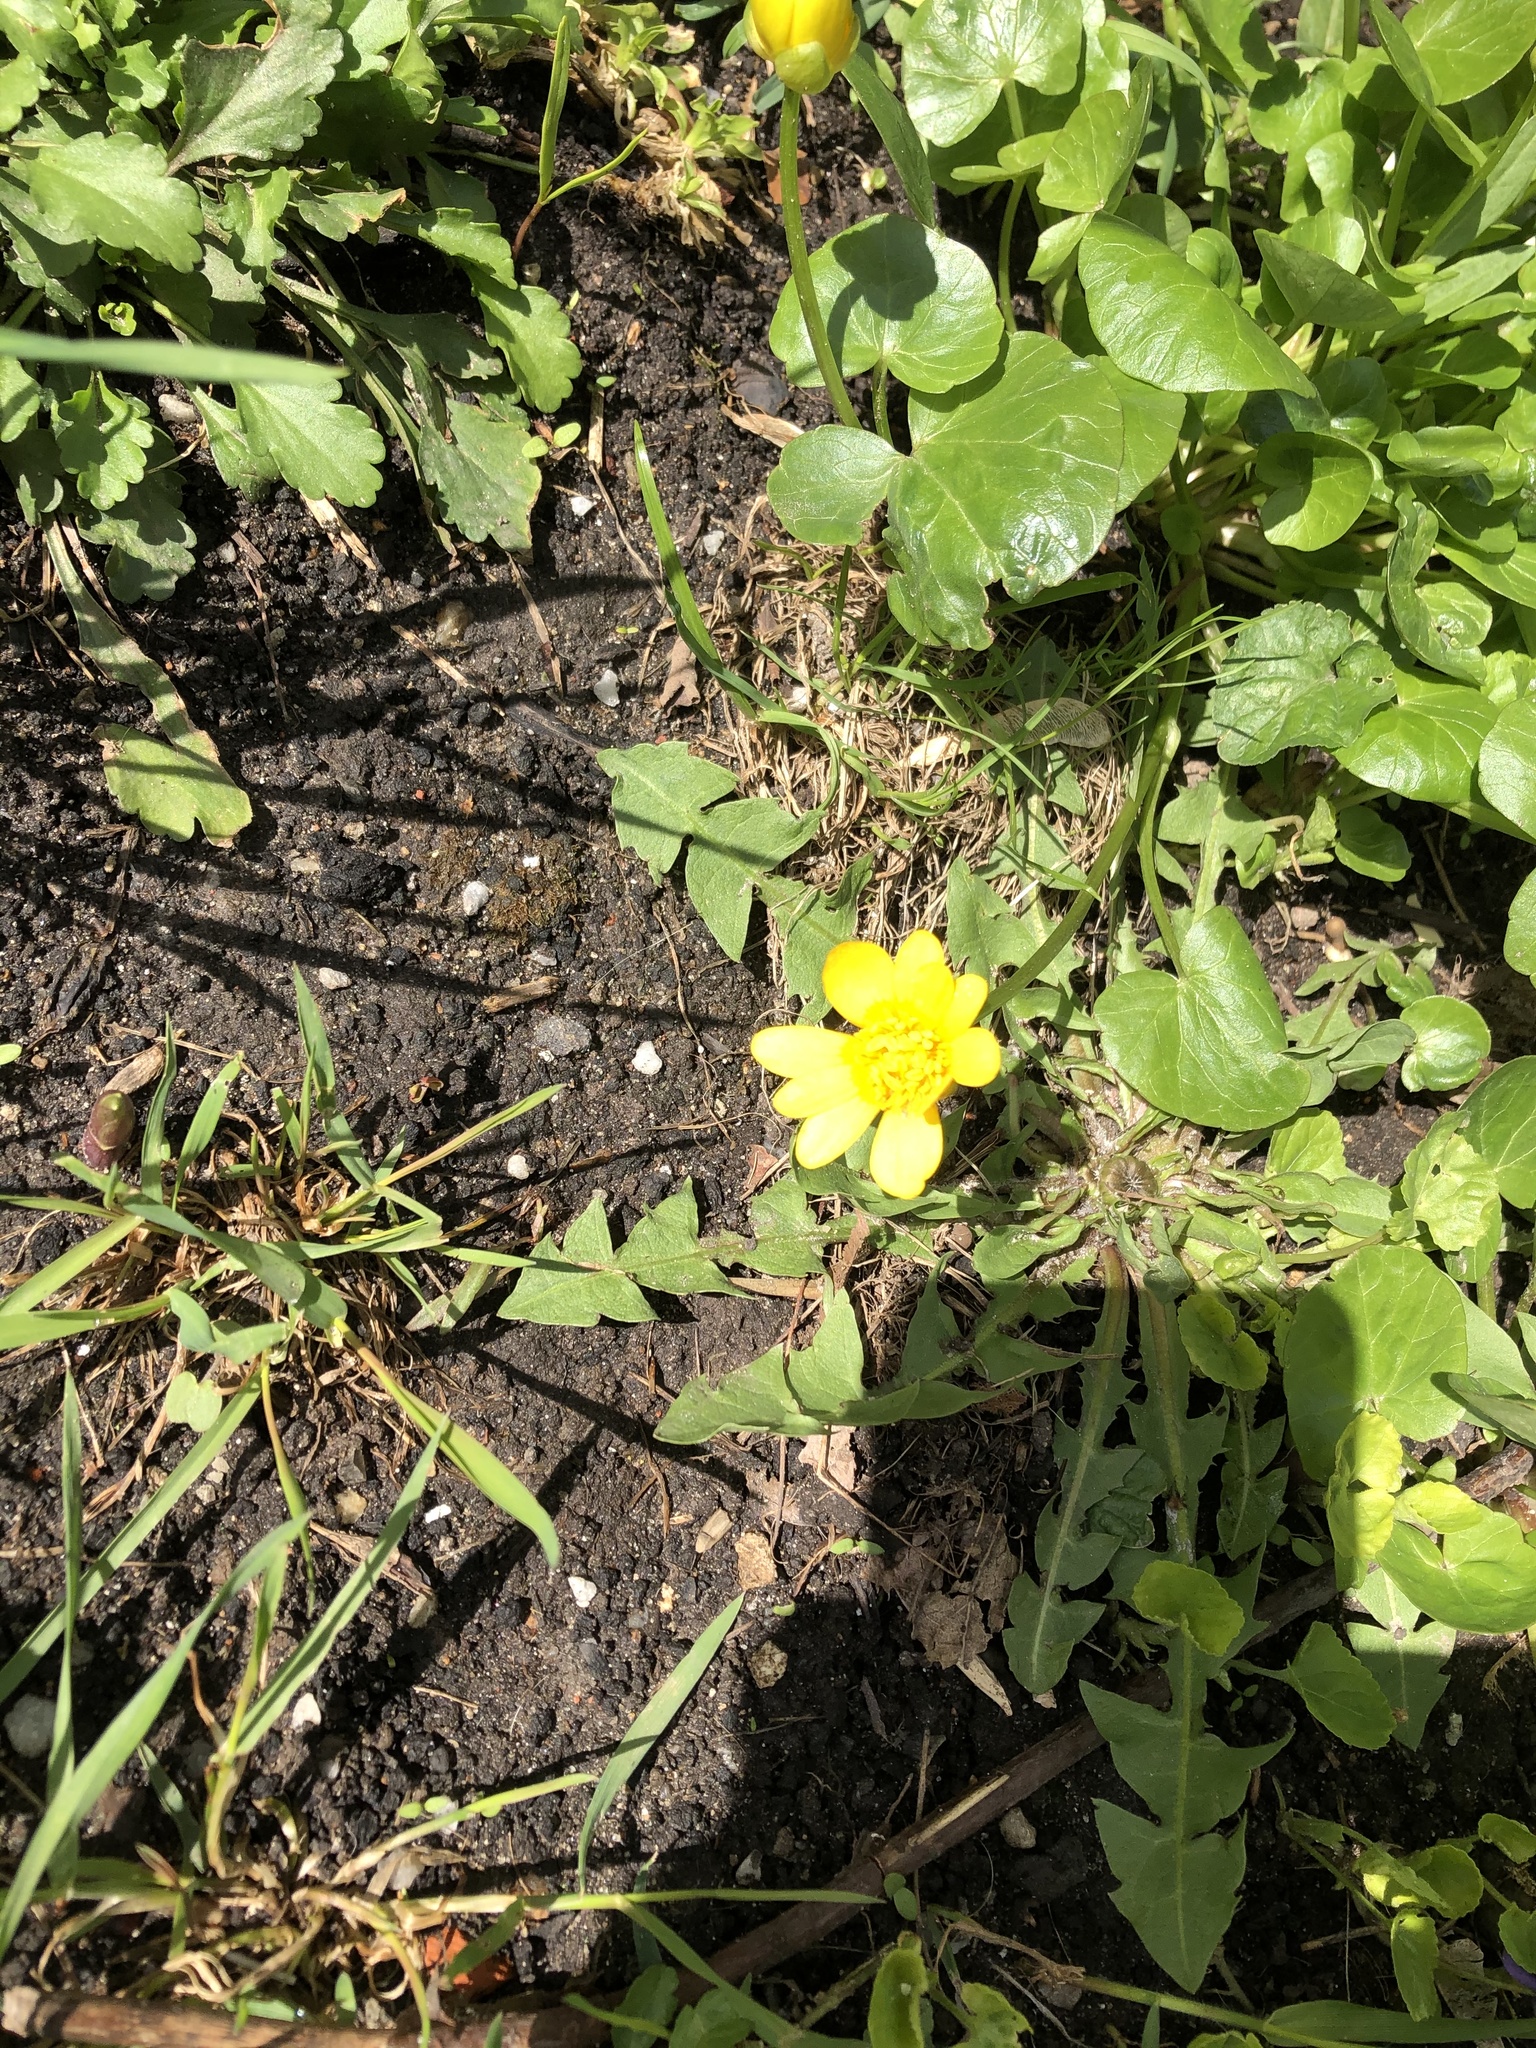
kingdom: Plantae
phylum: Tracheophyta
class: Magnoliopsida
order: Ranunculales
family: Ranunculaceae
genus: Ficaria
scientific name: Ficaria verna
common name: Lesser celandine
